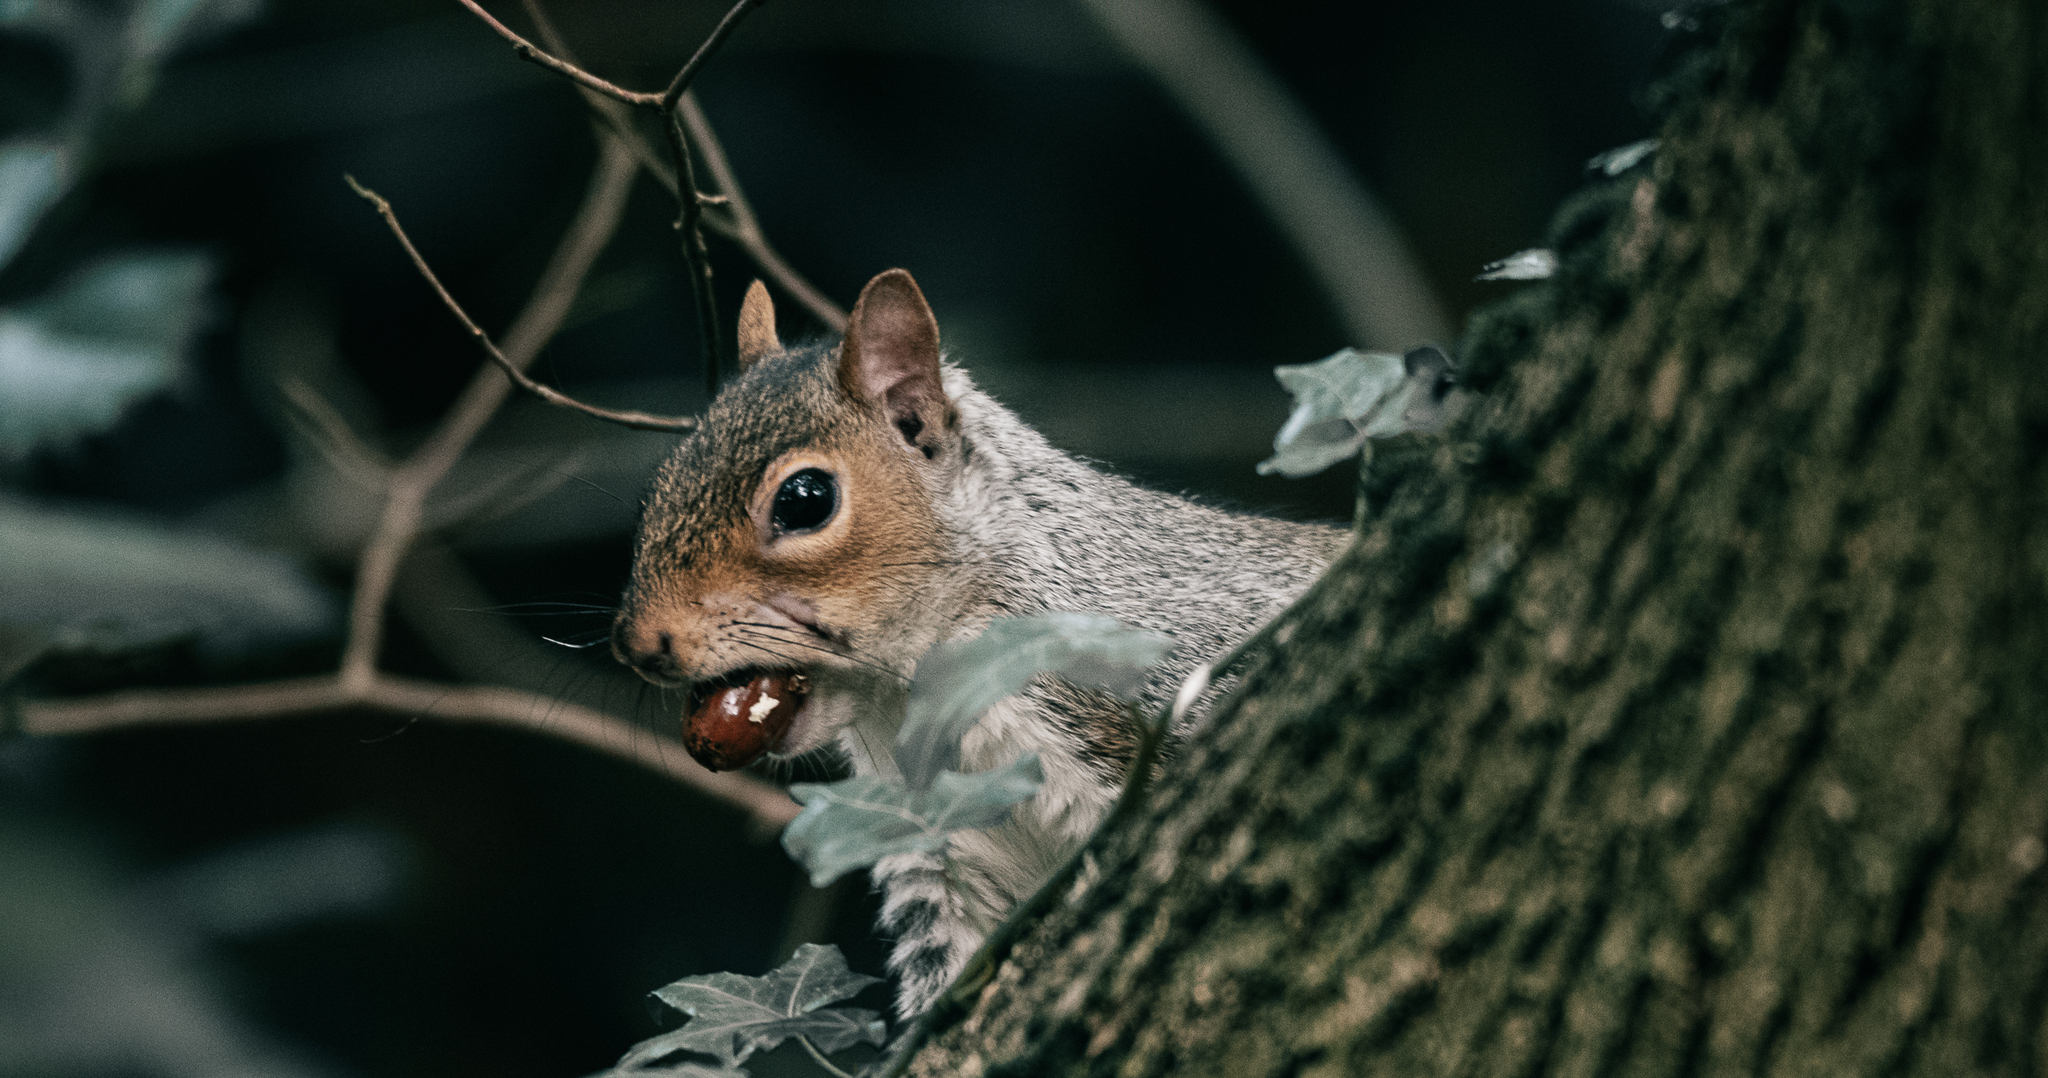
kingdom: Animalia
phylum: Chordata
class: Mammalia
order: Rodentia
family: Sciuridae
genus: Sciurus
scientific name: Sciurus carolinensis
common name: Eastern gray squirrel
